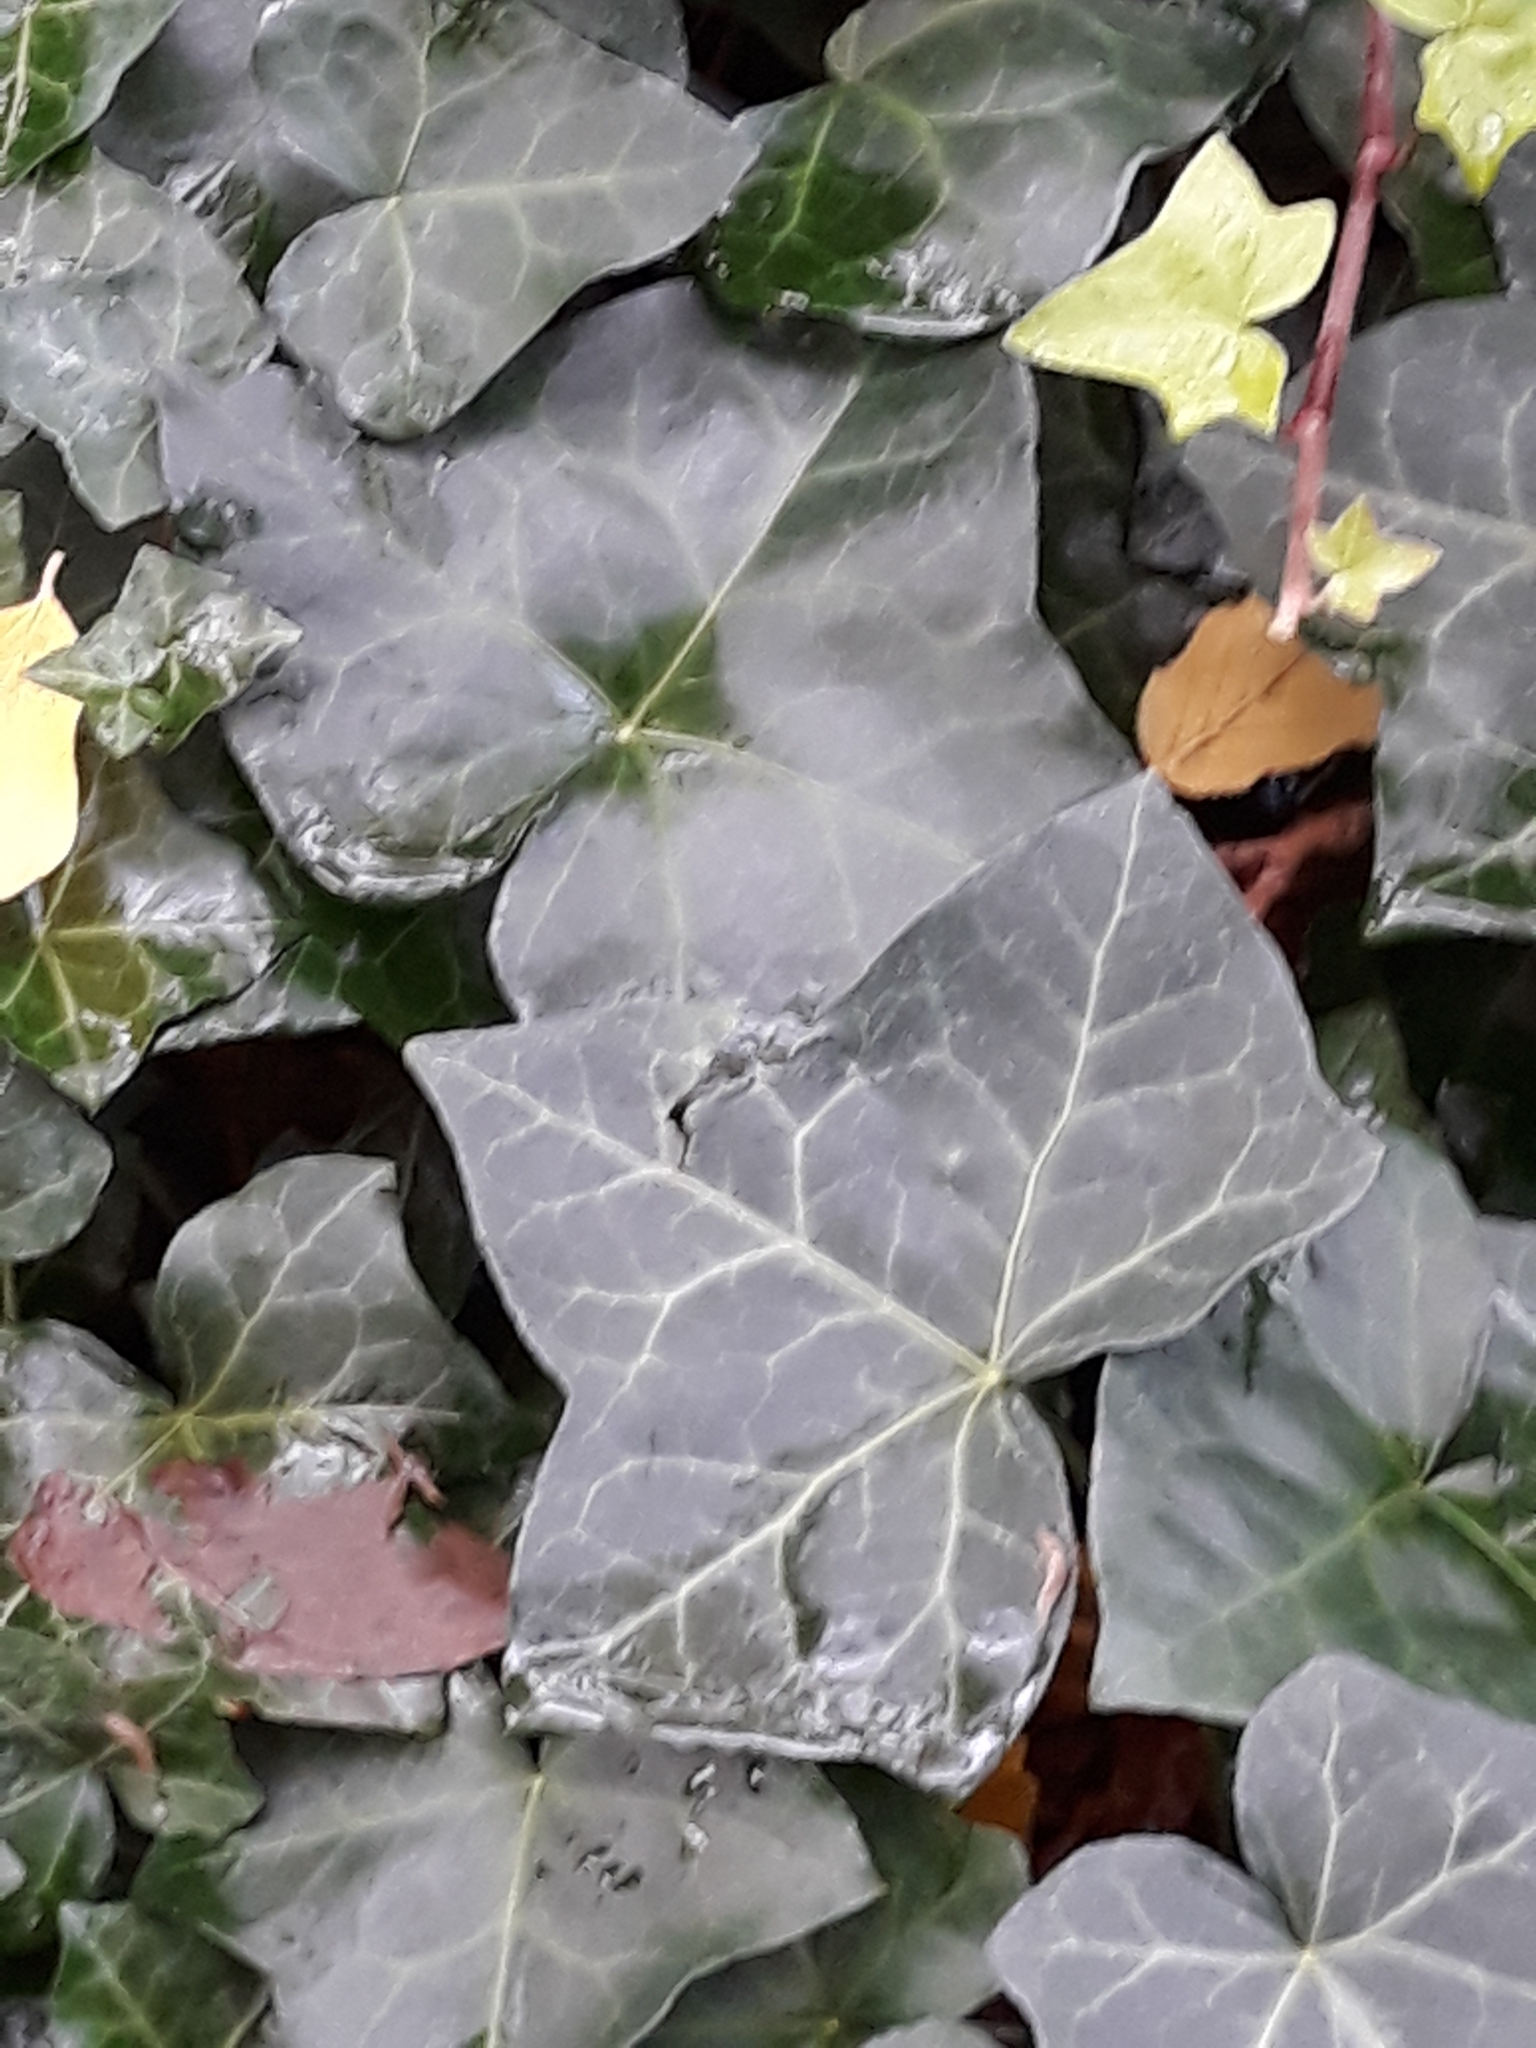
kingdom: Plantae
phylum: Tracheophyta
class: Magnoliopsida
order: Apiales
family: Araliaceae
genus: Hedera
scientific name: Hedera helix
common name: Ivy
